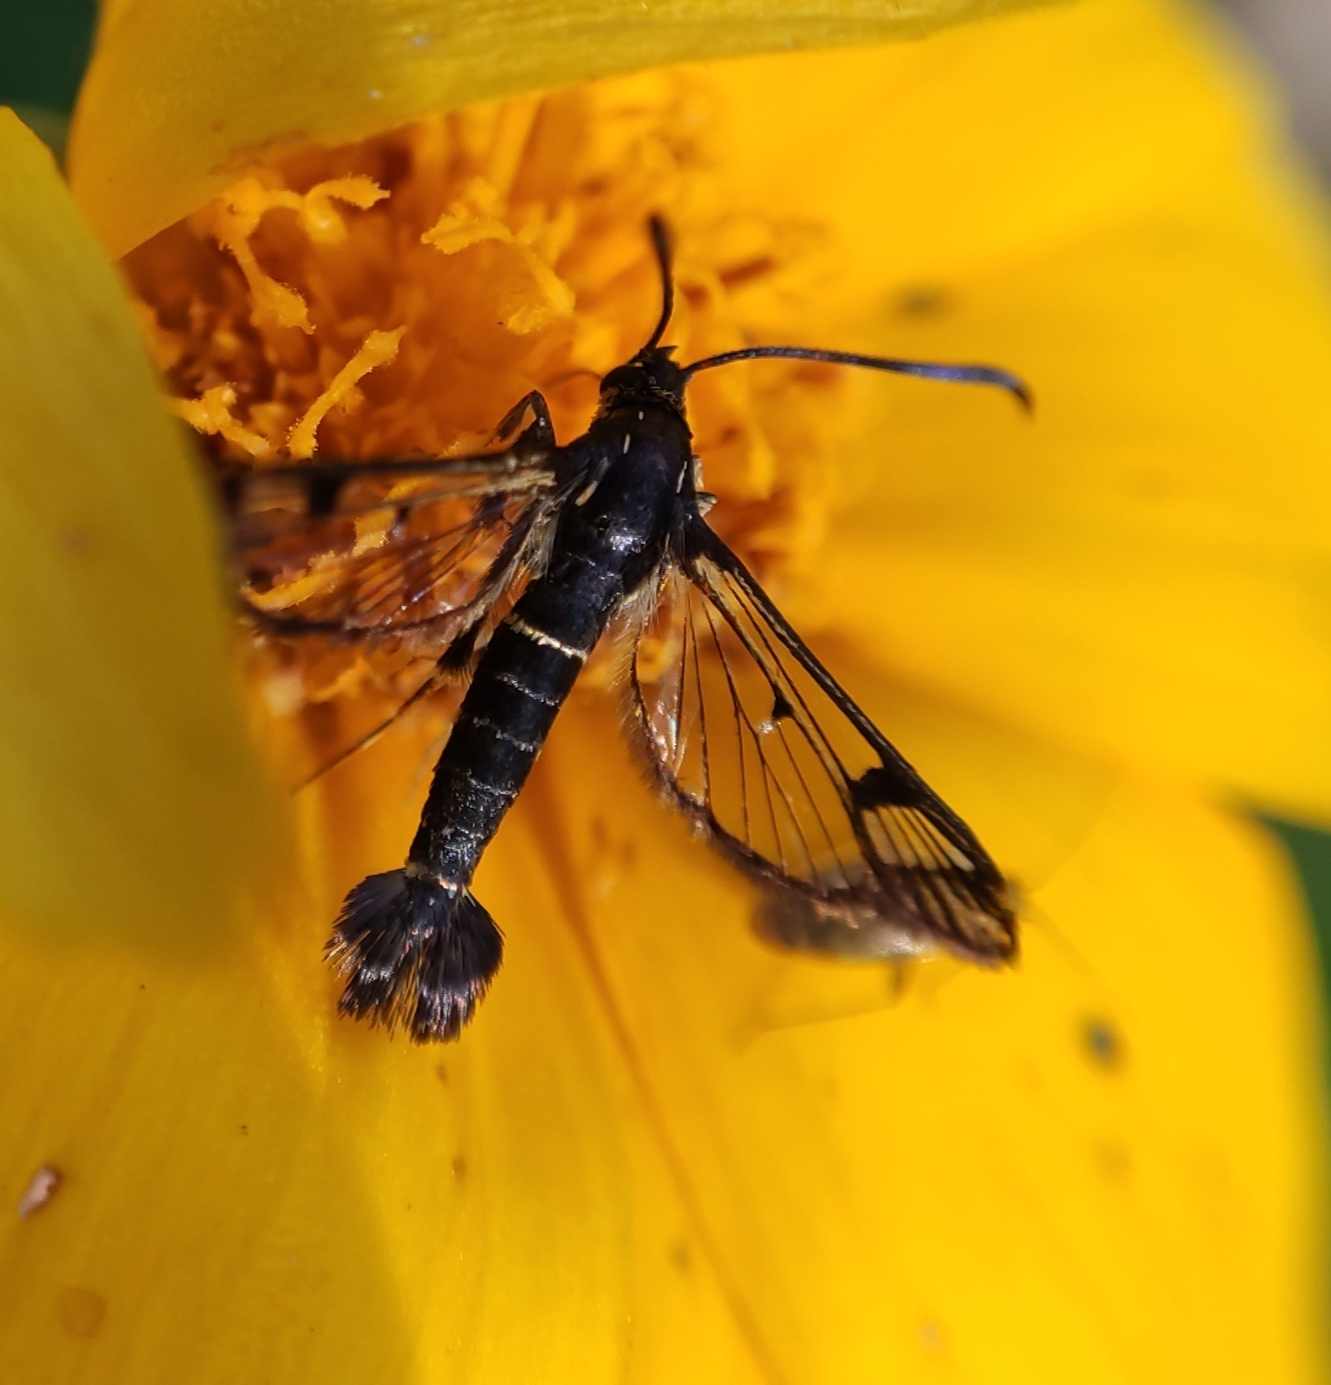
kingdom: Animalia
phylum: Arthropoda
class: Insecta
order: Lepidoptera
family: Sesiidae
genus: Synanthedon
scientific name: Synanthedon tipuliformis
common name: Currant clearwing
